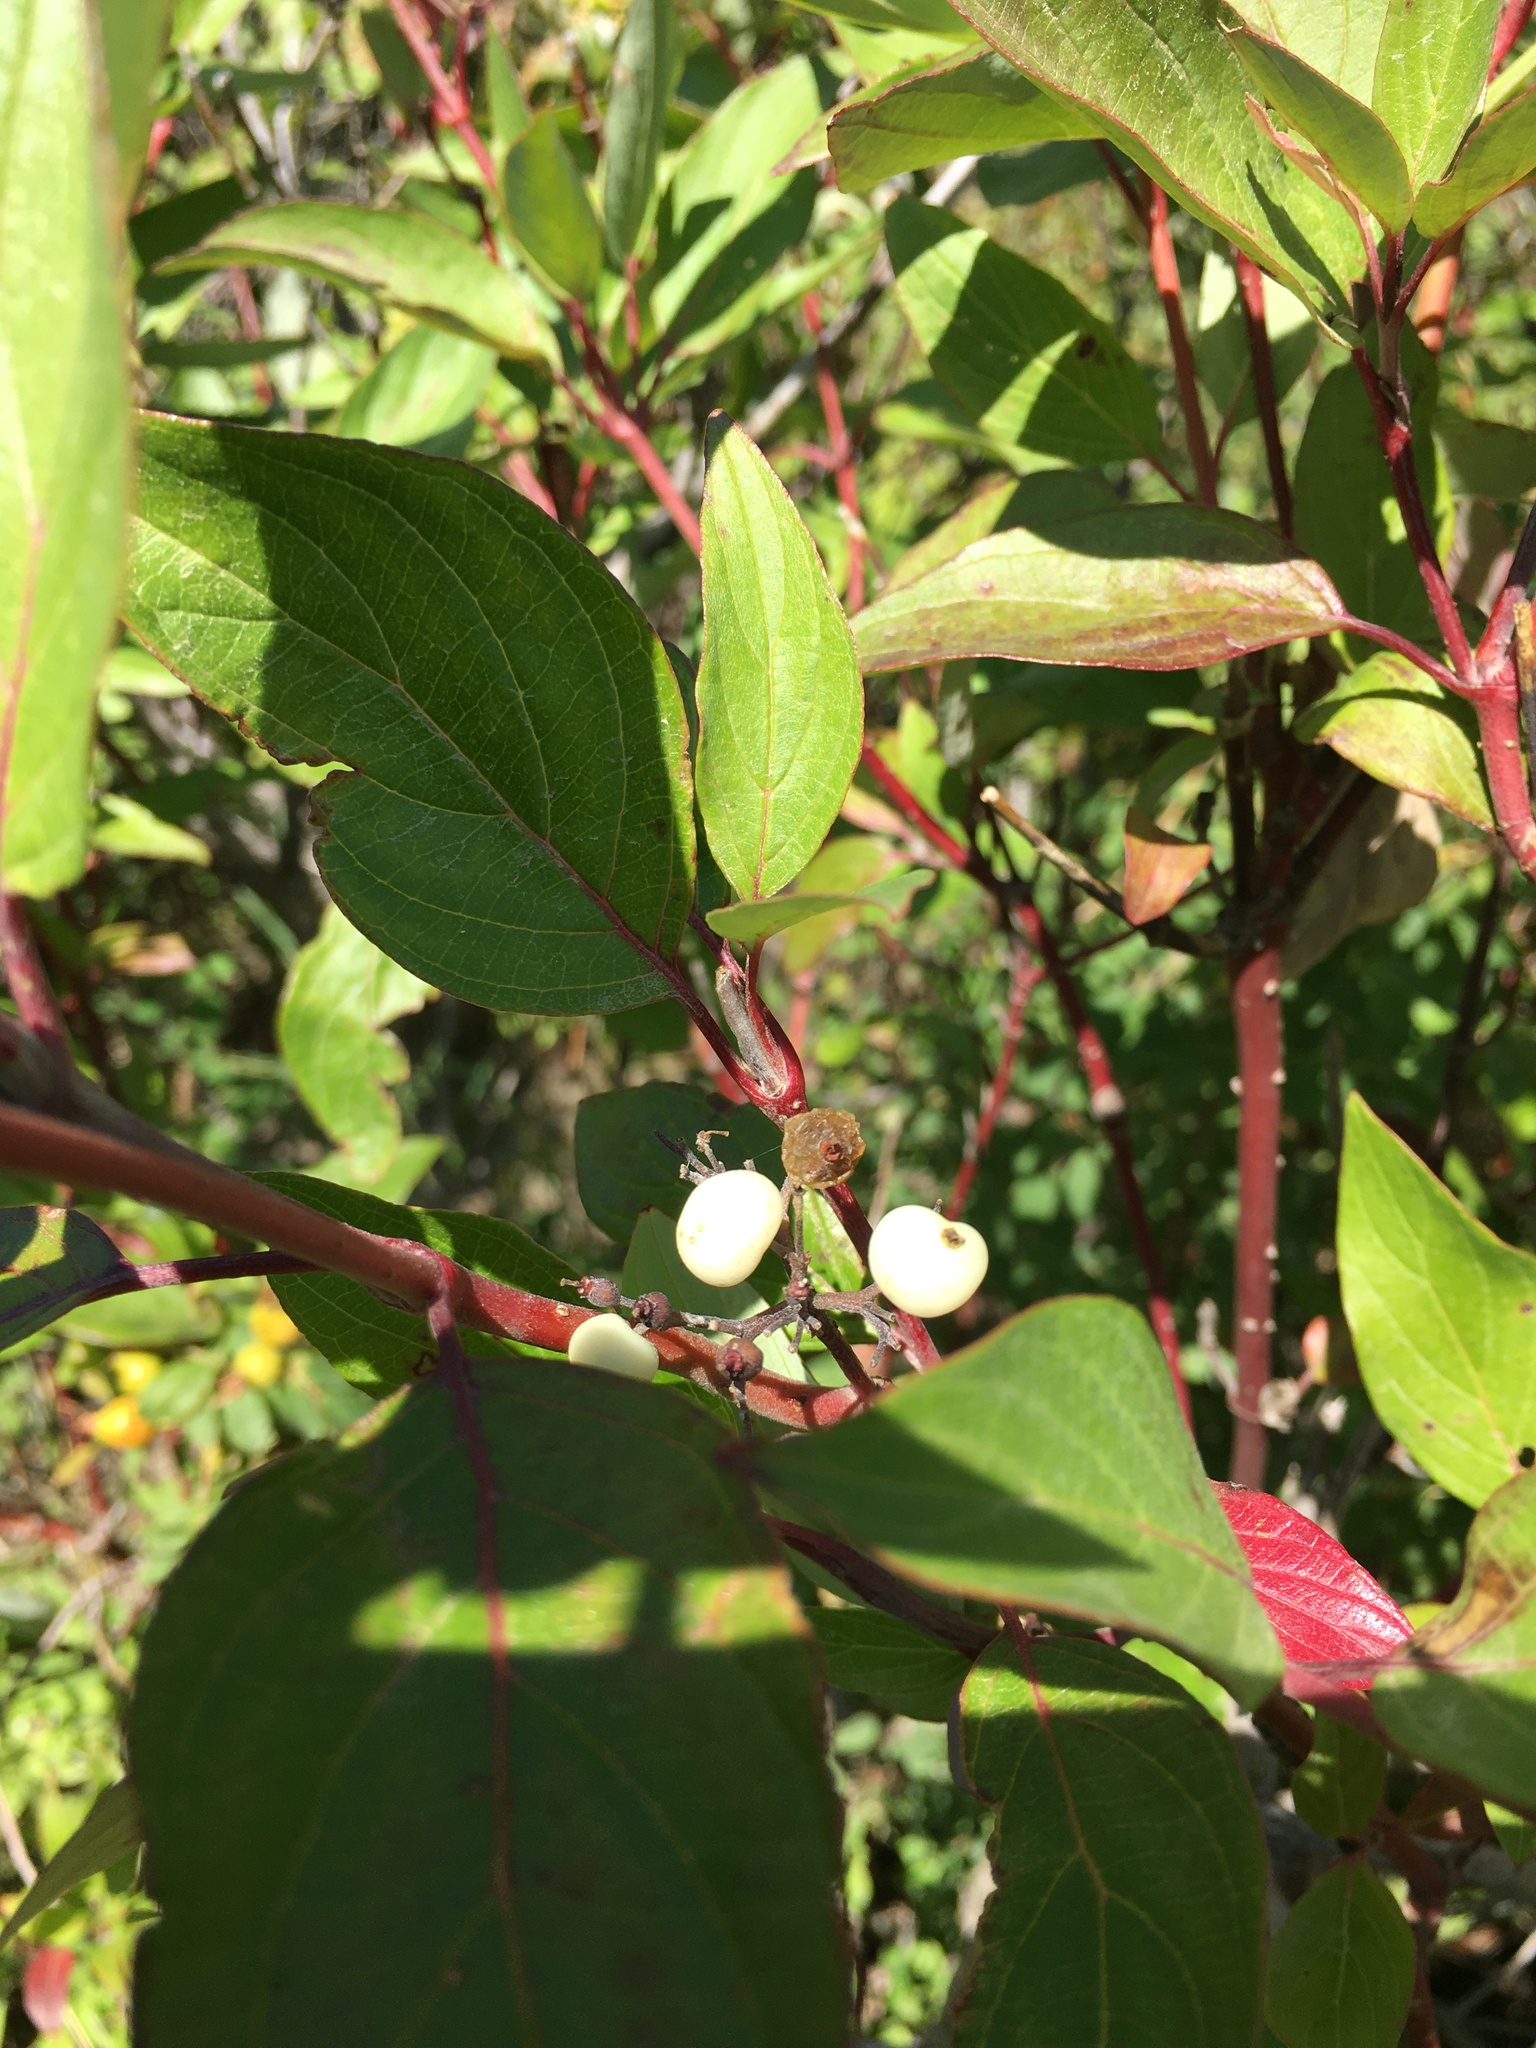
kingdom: Plantae
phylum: Tracheophyta
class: Magnoliopsida
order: Cornales
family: Cornaceae
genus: Cornus
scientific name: Cornus sericea
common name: Red-osier dogwood
